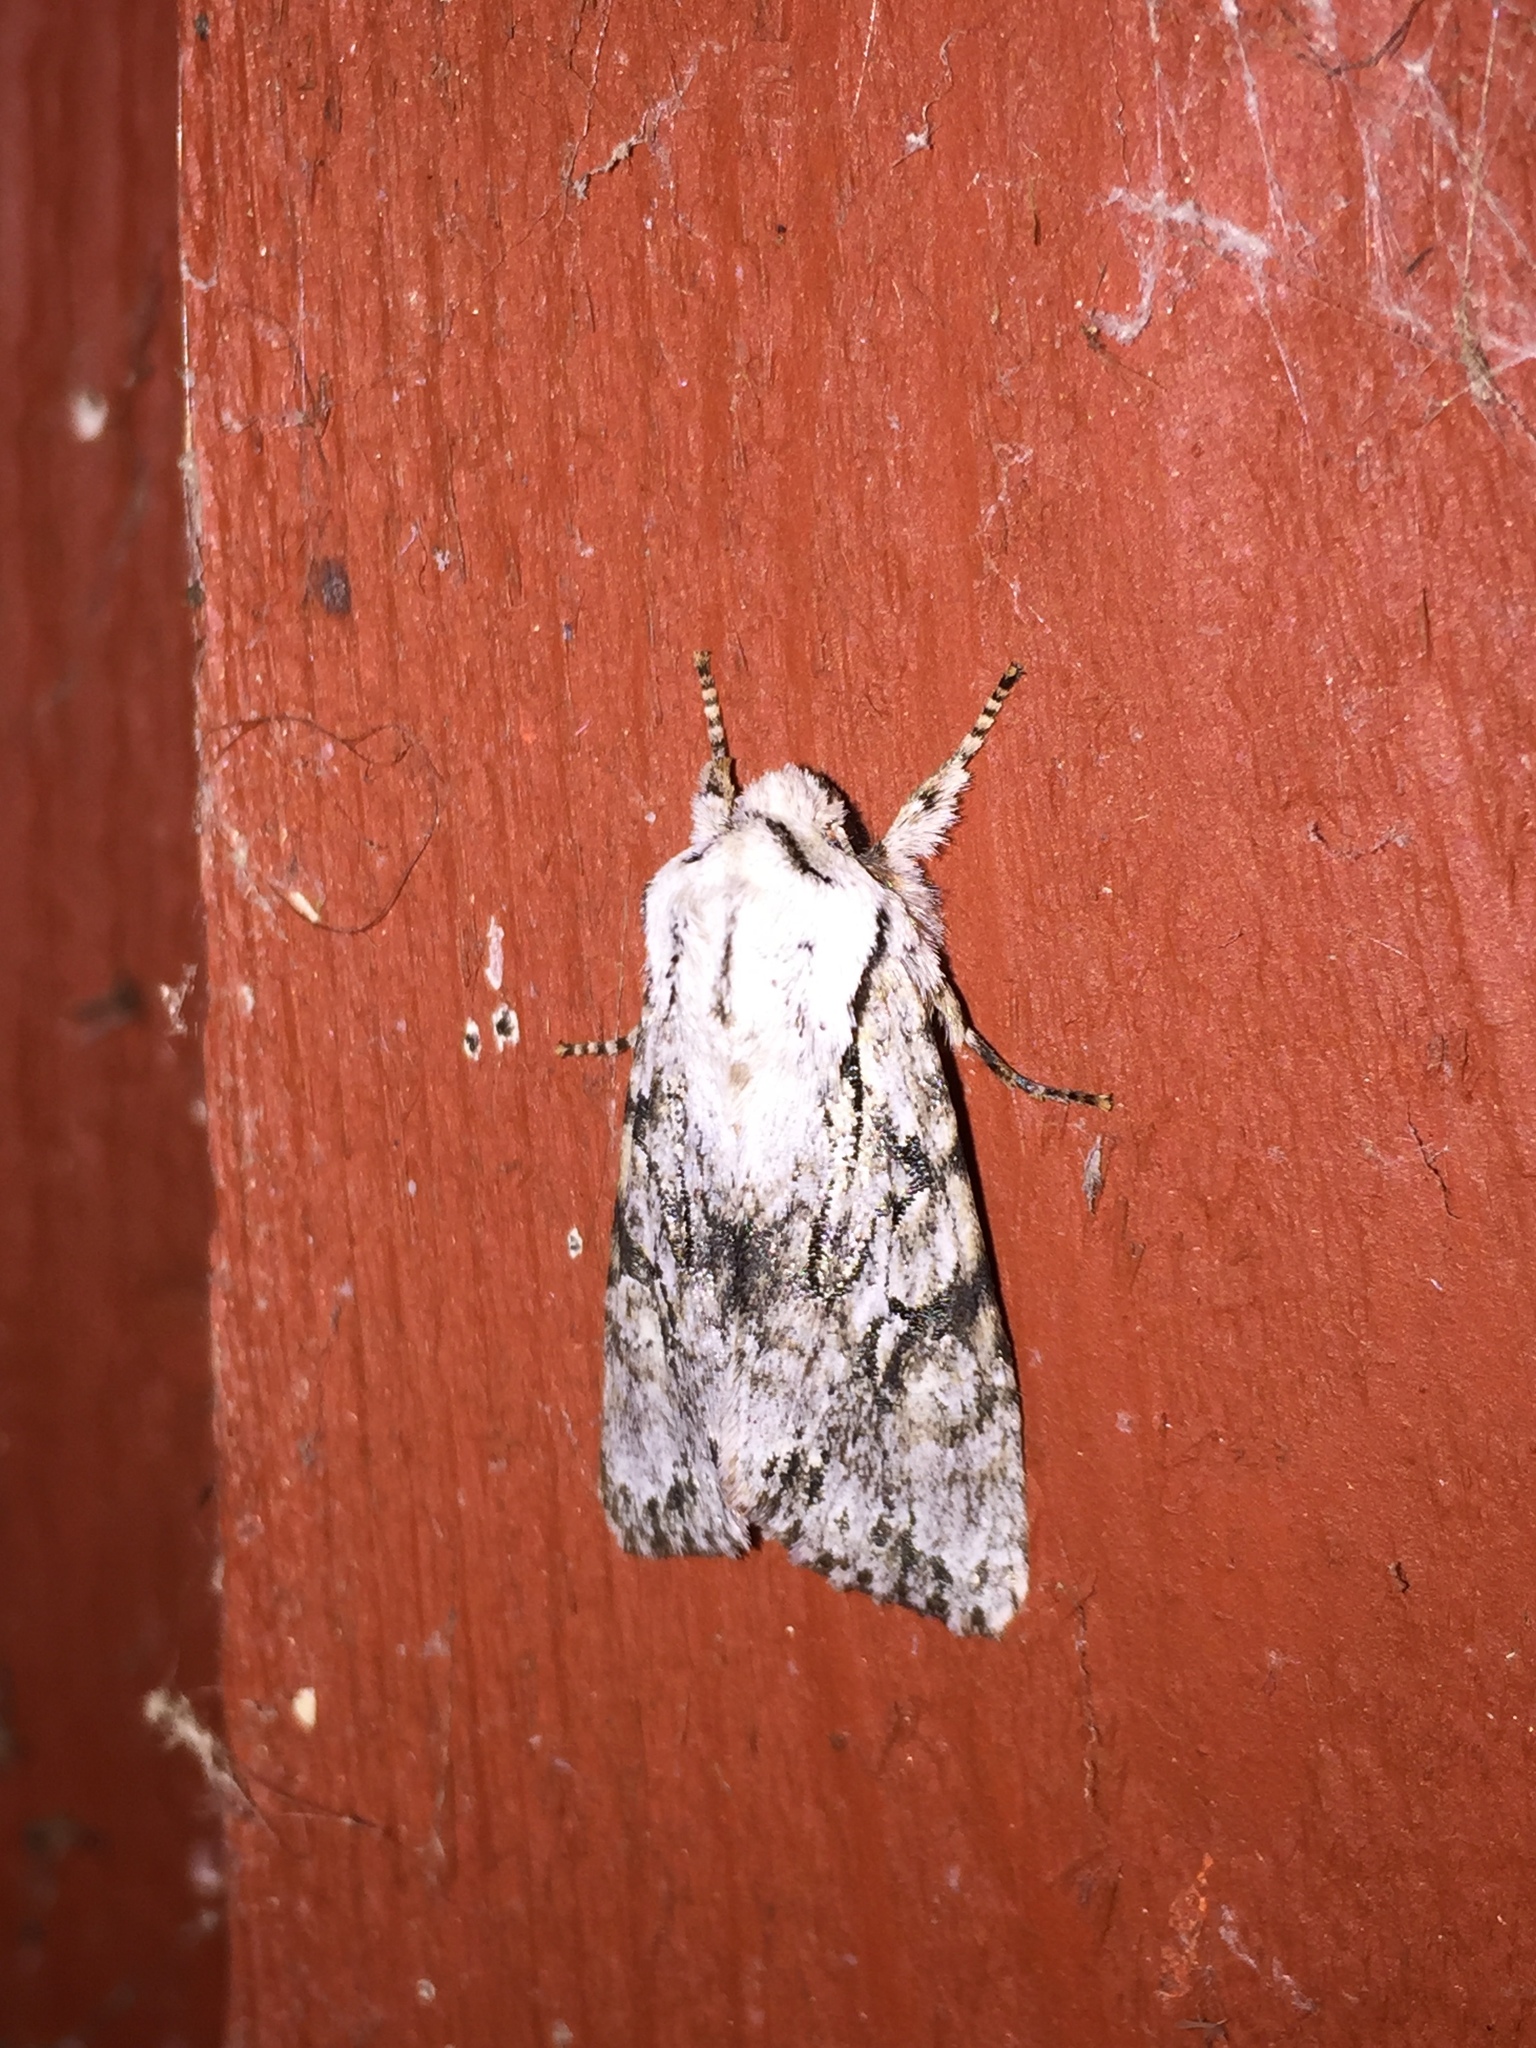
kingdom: Animalia
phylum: Arthropoda
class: Insecta
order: Lepidoptera
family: Noctuidae
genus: Egira
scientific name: Egira simplex
